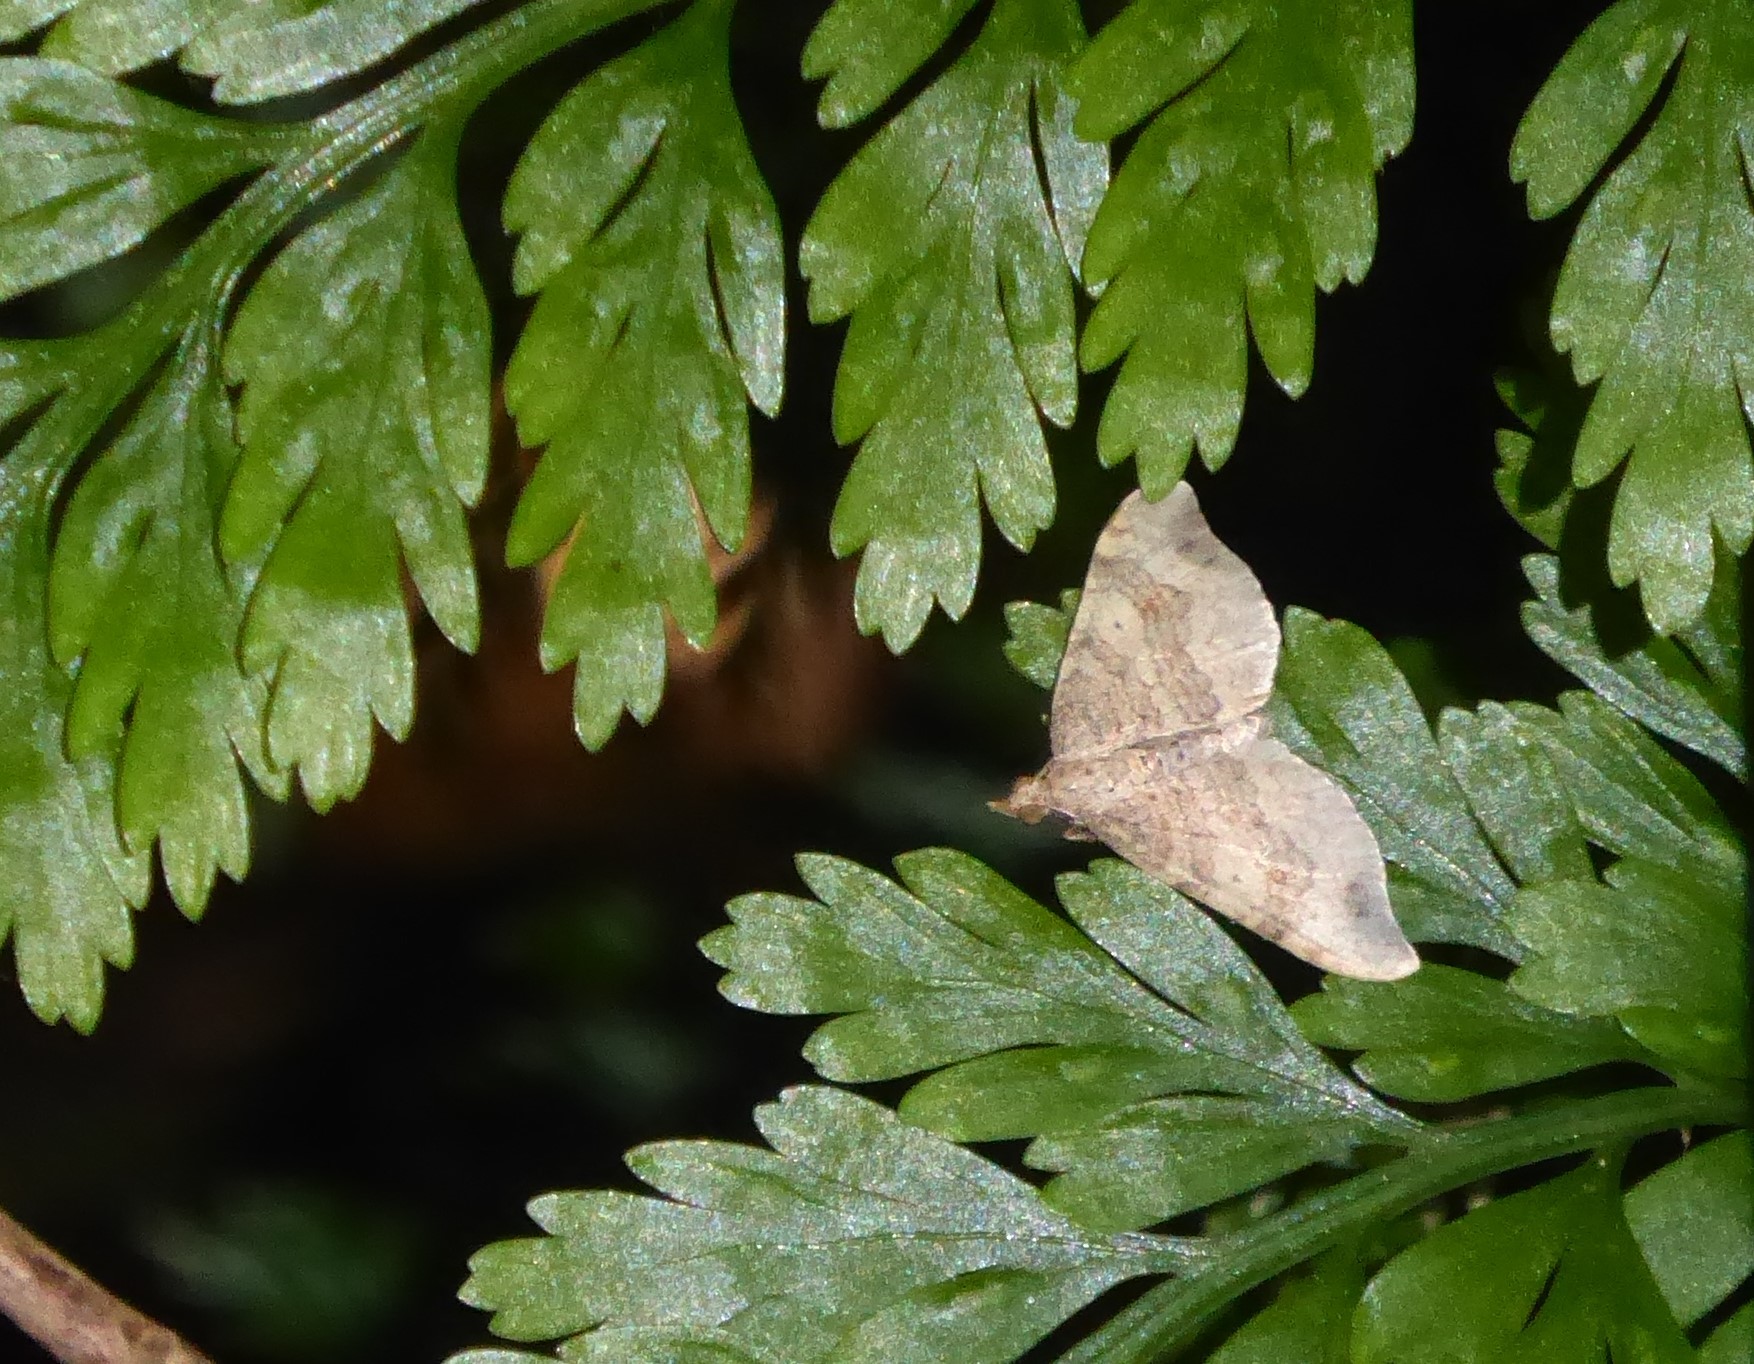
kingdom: Animalia
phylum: Arthropoda
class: Insecta
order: Lepidoptera
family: Geometridae
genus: Homodotis
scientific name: Homodotis megaspilata
